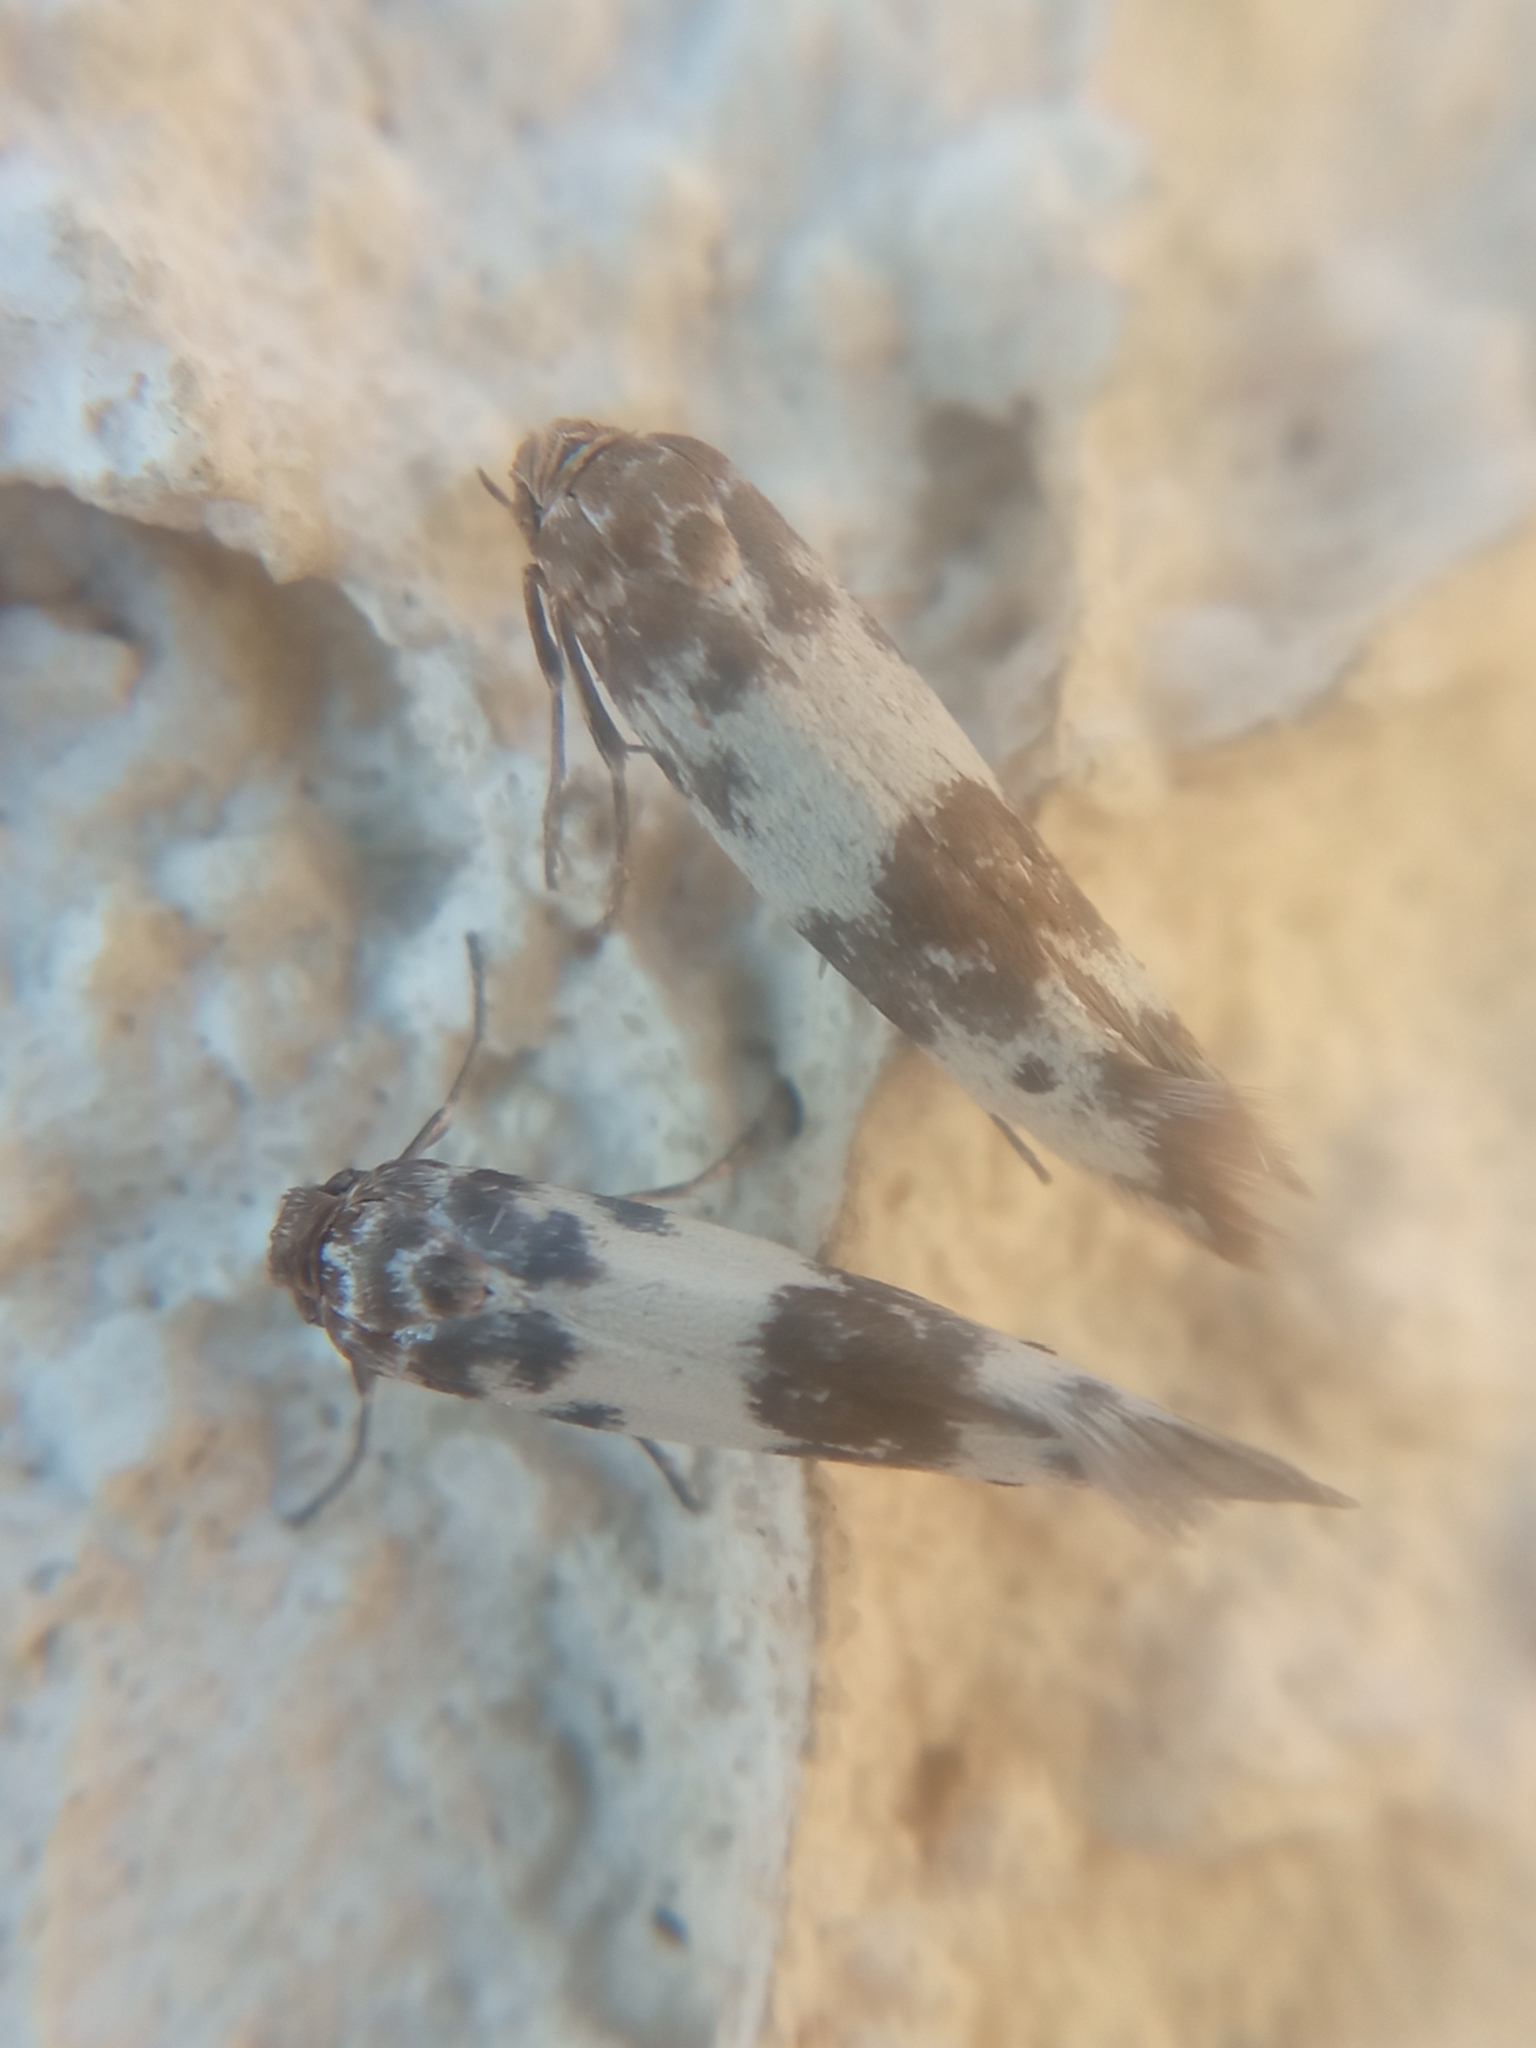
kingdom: Animalia
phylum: Arthropoda
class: Insecta
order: Lepidoptera
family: Scythrididae
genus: Enolmis
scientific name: Enolmis acanthella
